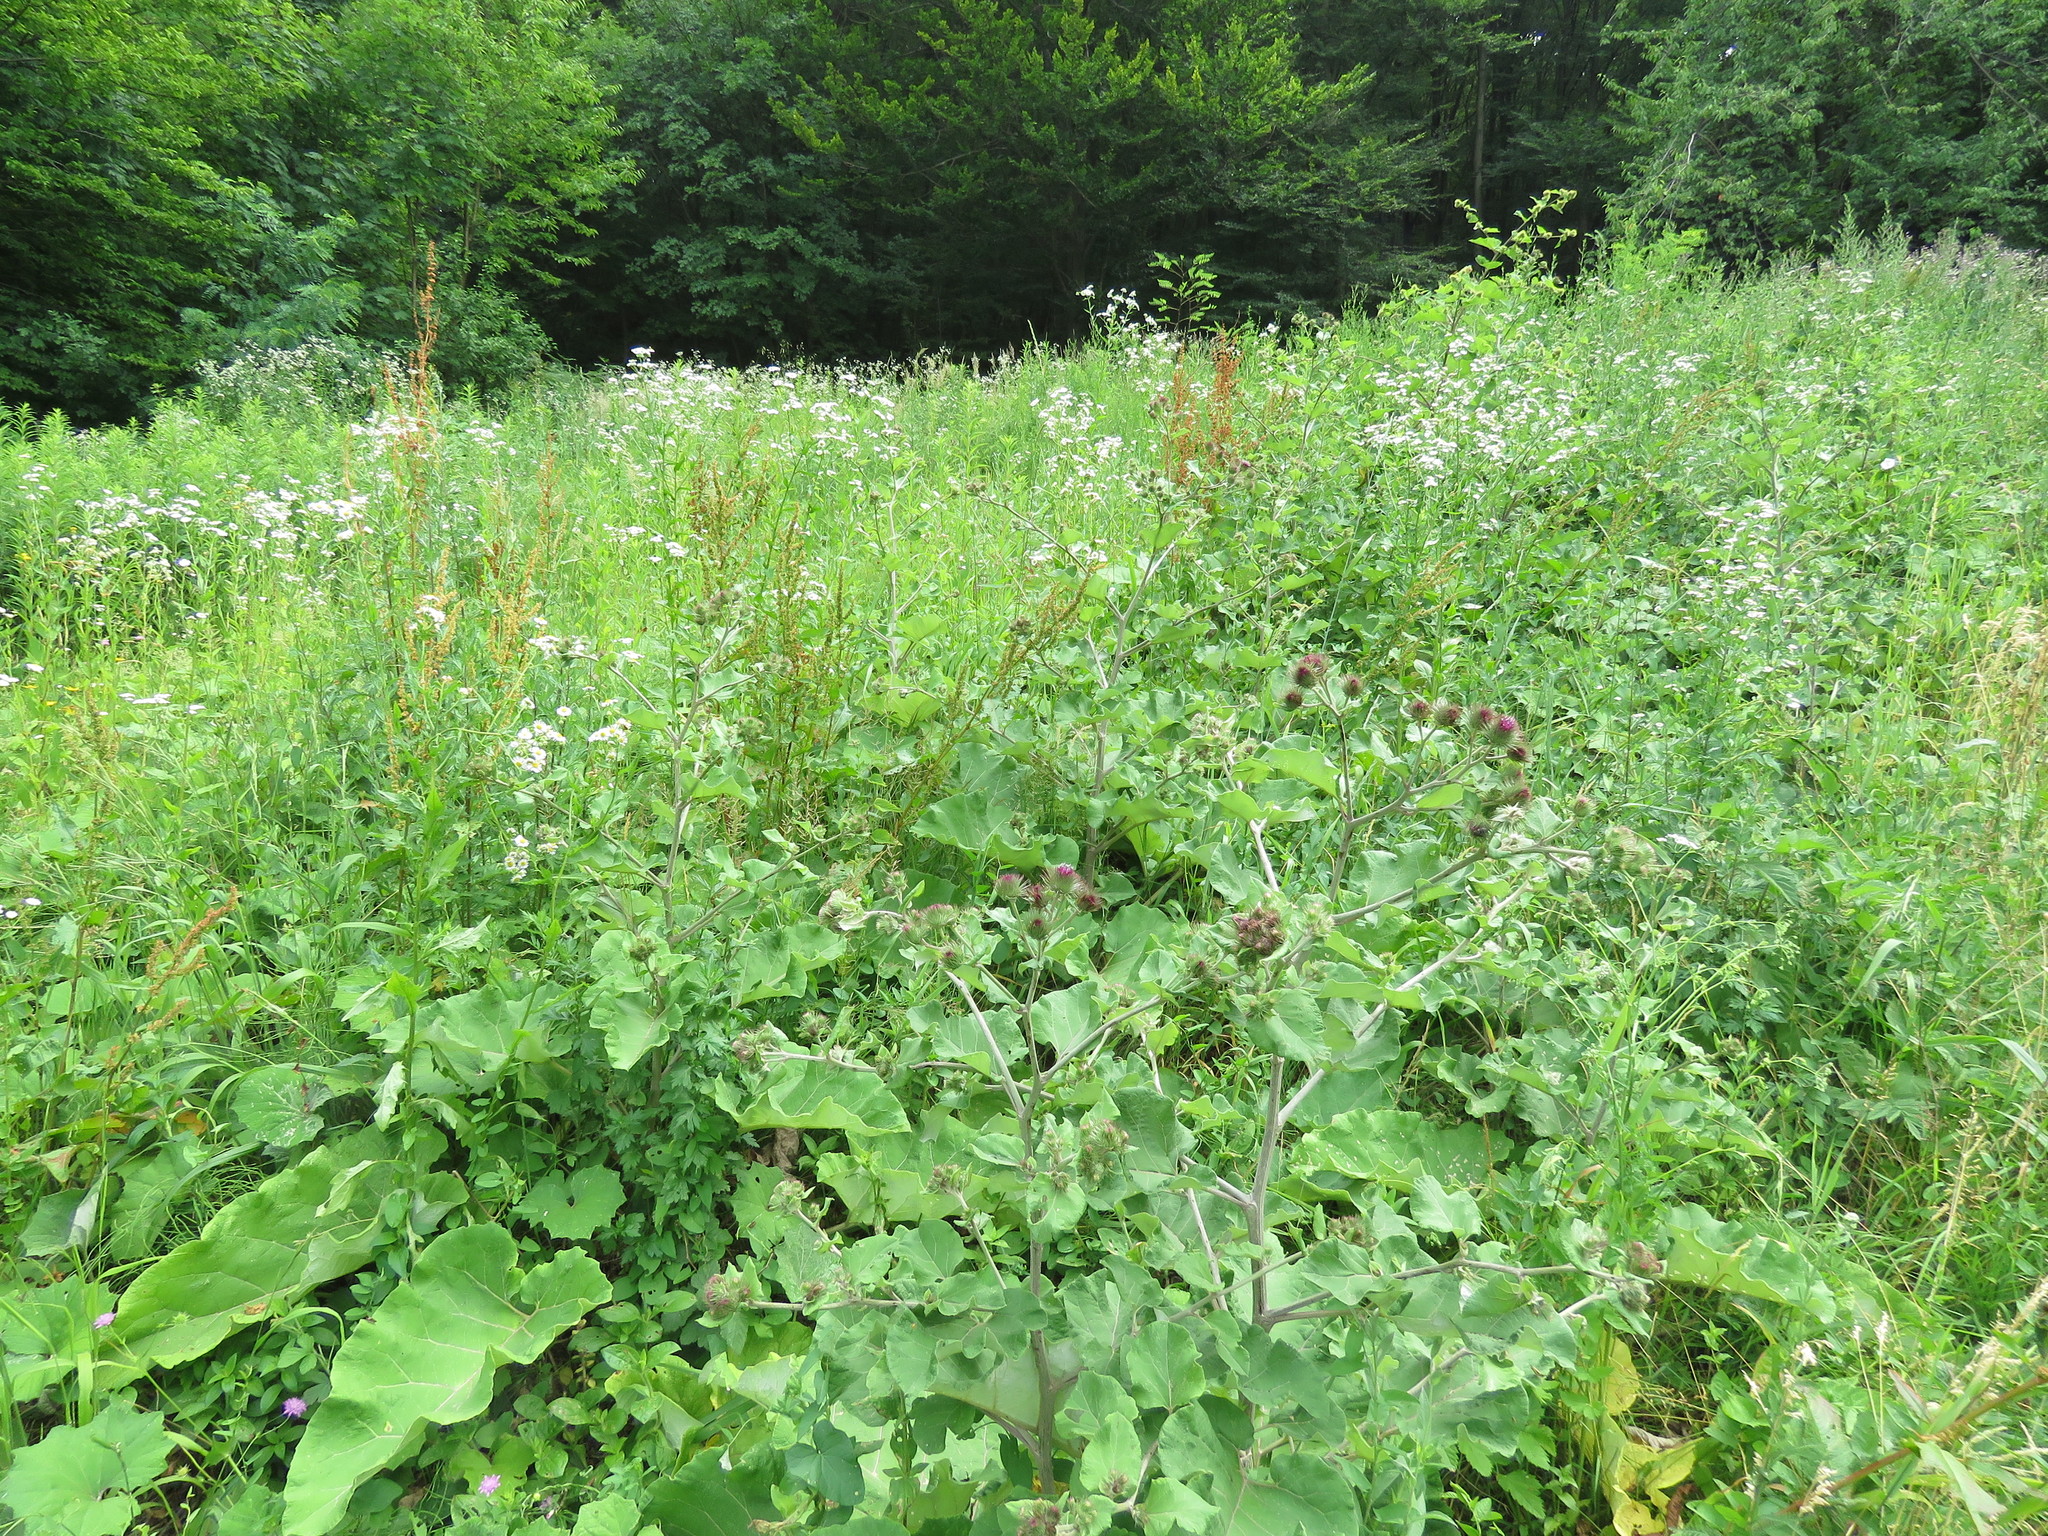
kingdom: Plantae
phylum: Tracheophyta
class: Magnoliopsida
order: Asterales
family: Asteraceae
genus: Arctium
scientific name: Arctium lappa
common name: Greater burdock
